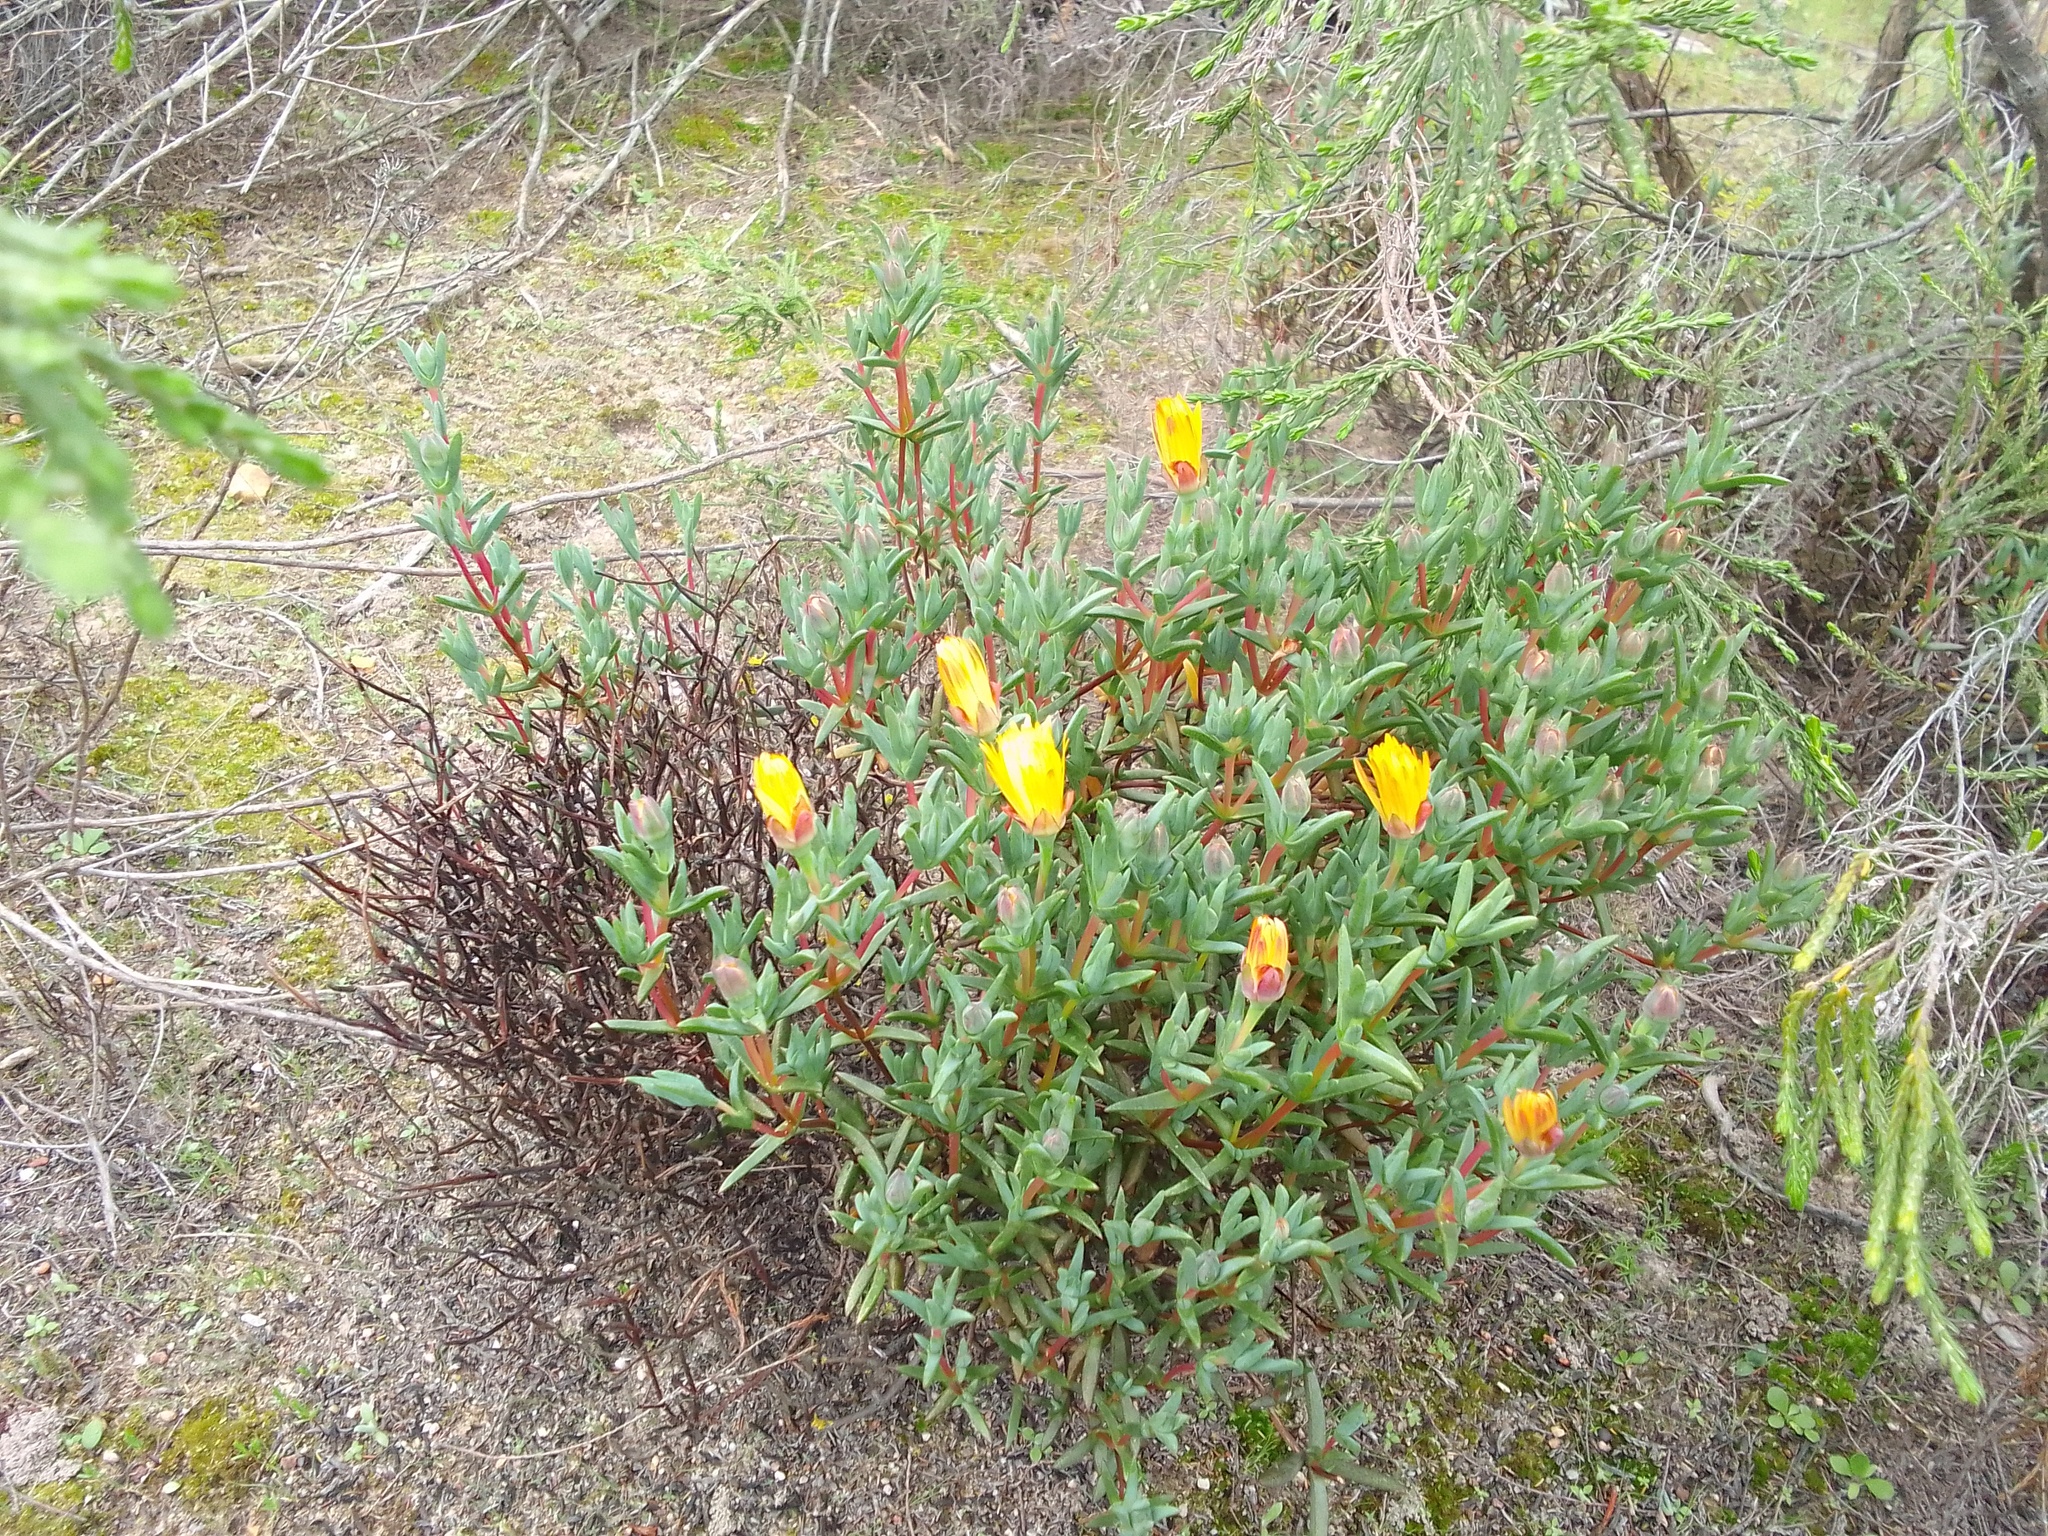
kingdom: Plantae
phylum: Tracheophyta
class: Magnoliopsida
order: Caryophyllales
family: Aizoaceae
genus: Lampranthus
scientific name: Lampranthus glaucus
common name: Noonflower
